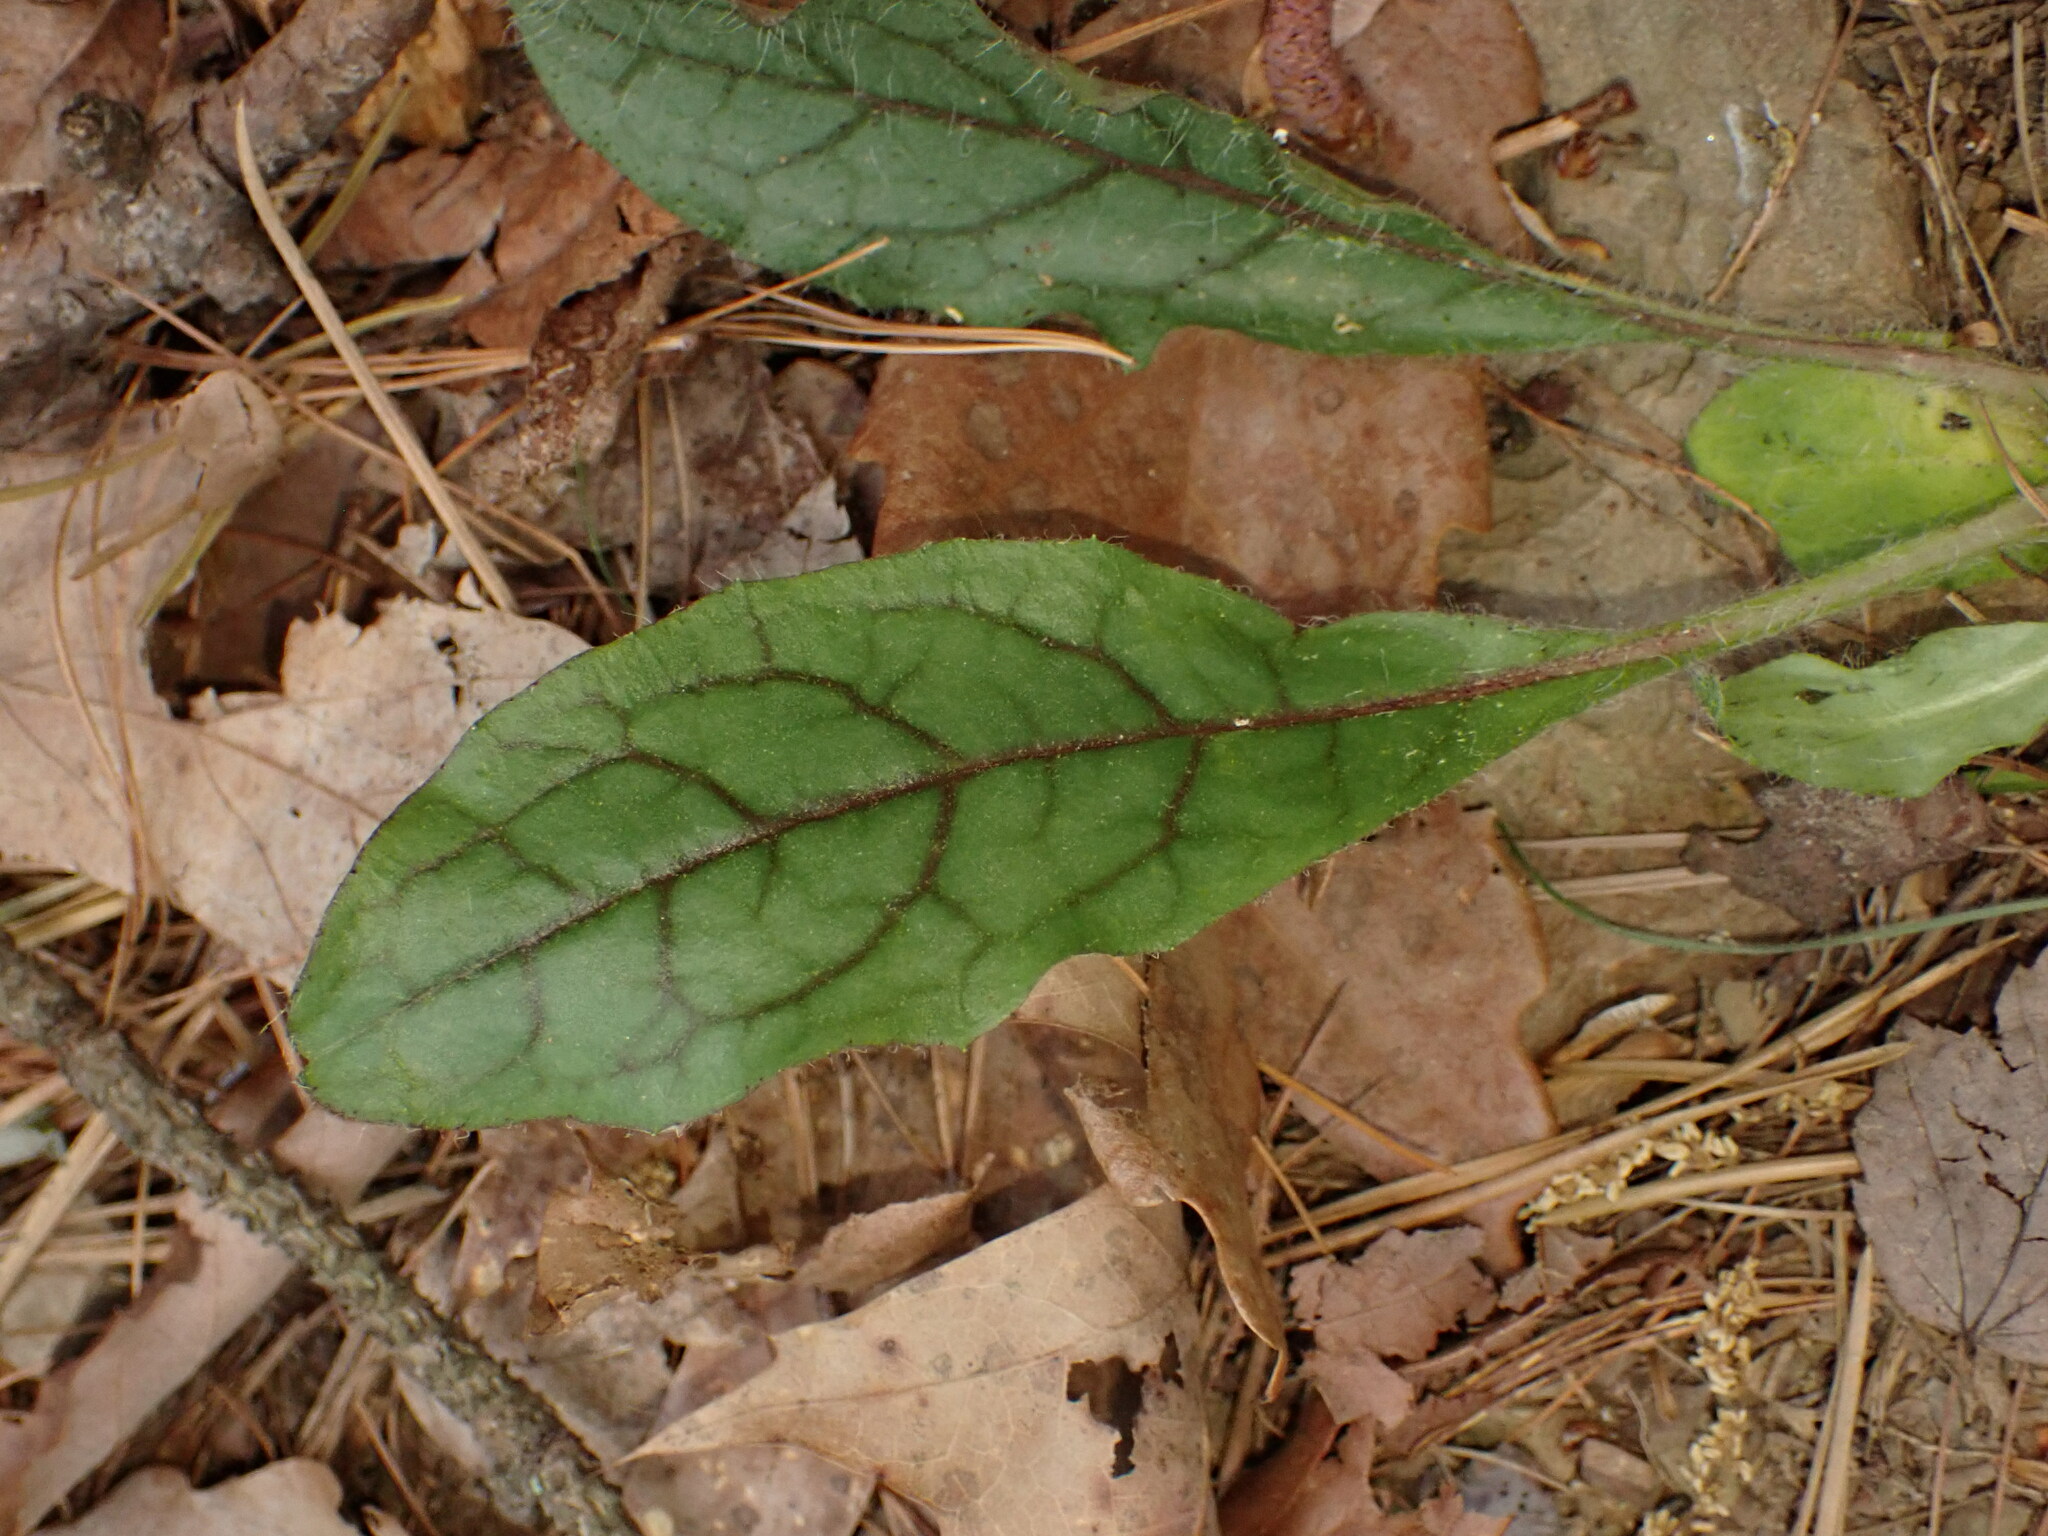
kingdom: Plantae
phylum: Tracheophyta
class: Magnoliopsida
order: Asterales
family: Asteraceae
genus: Hieracium
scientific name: Hieracium venosum
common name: Rattlesnake hawkweed
